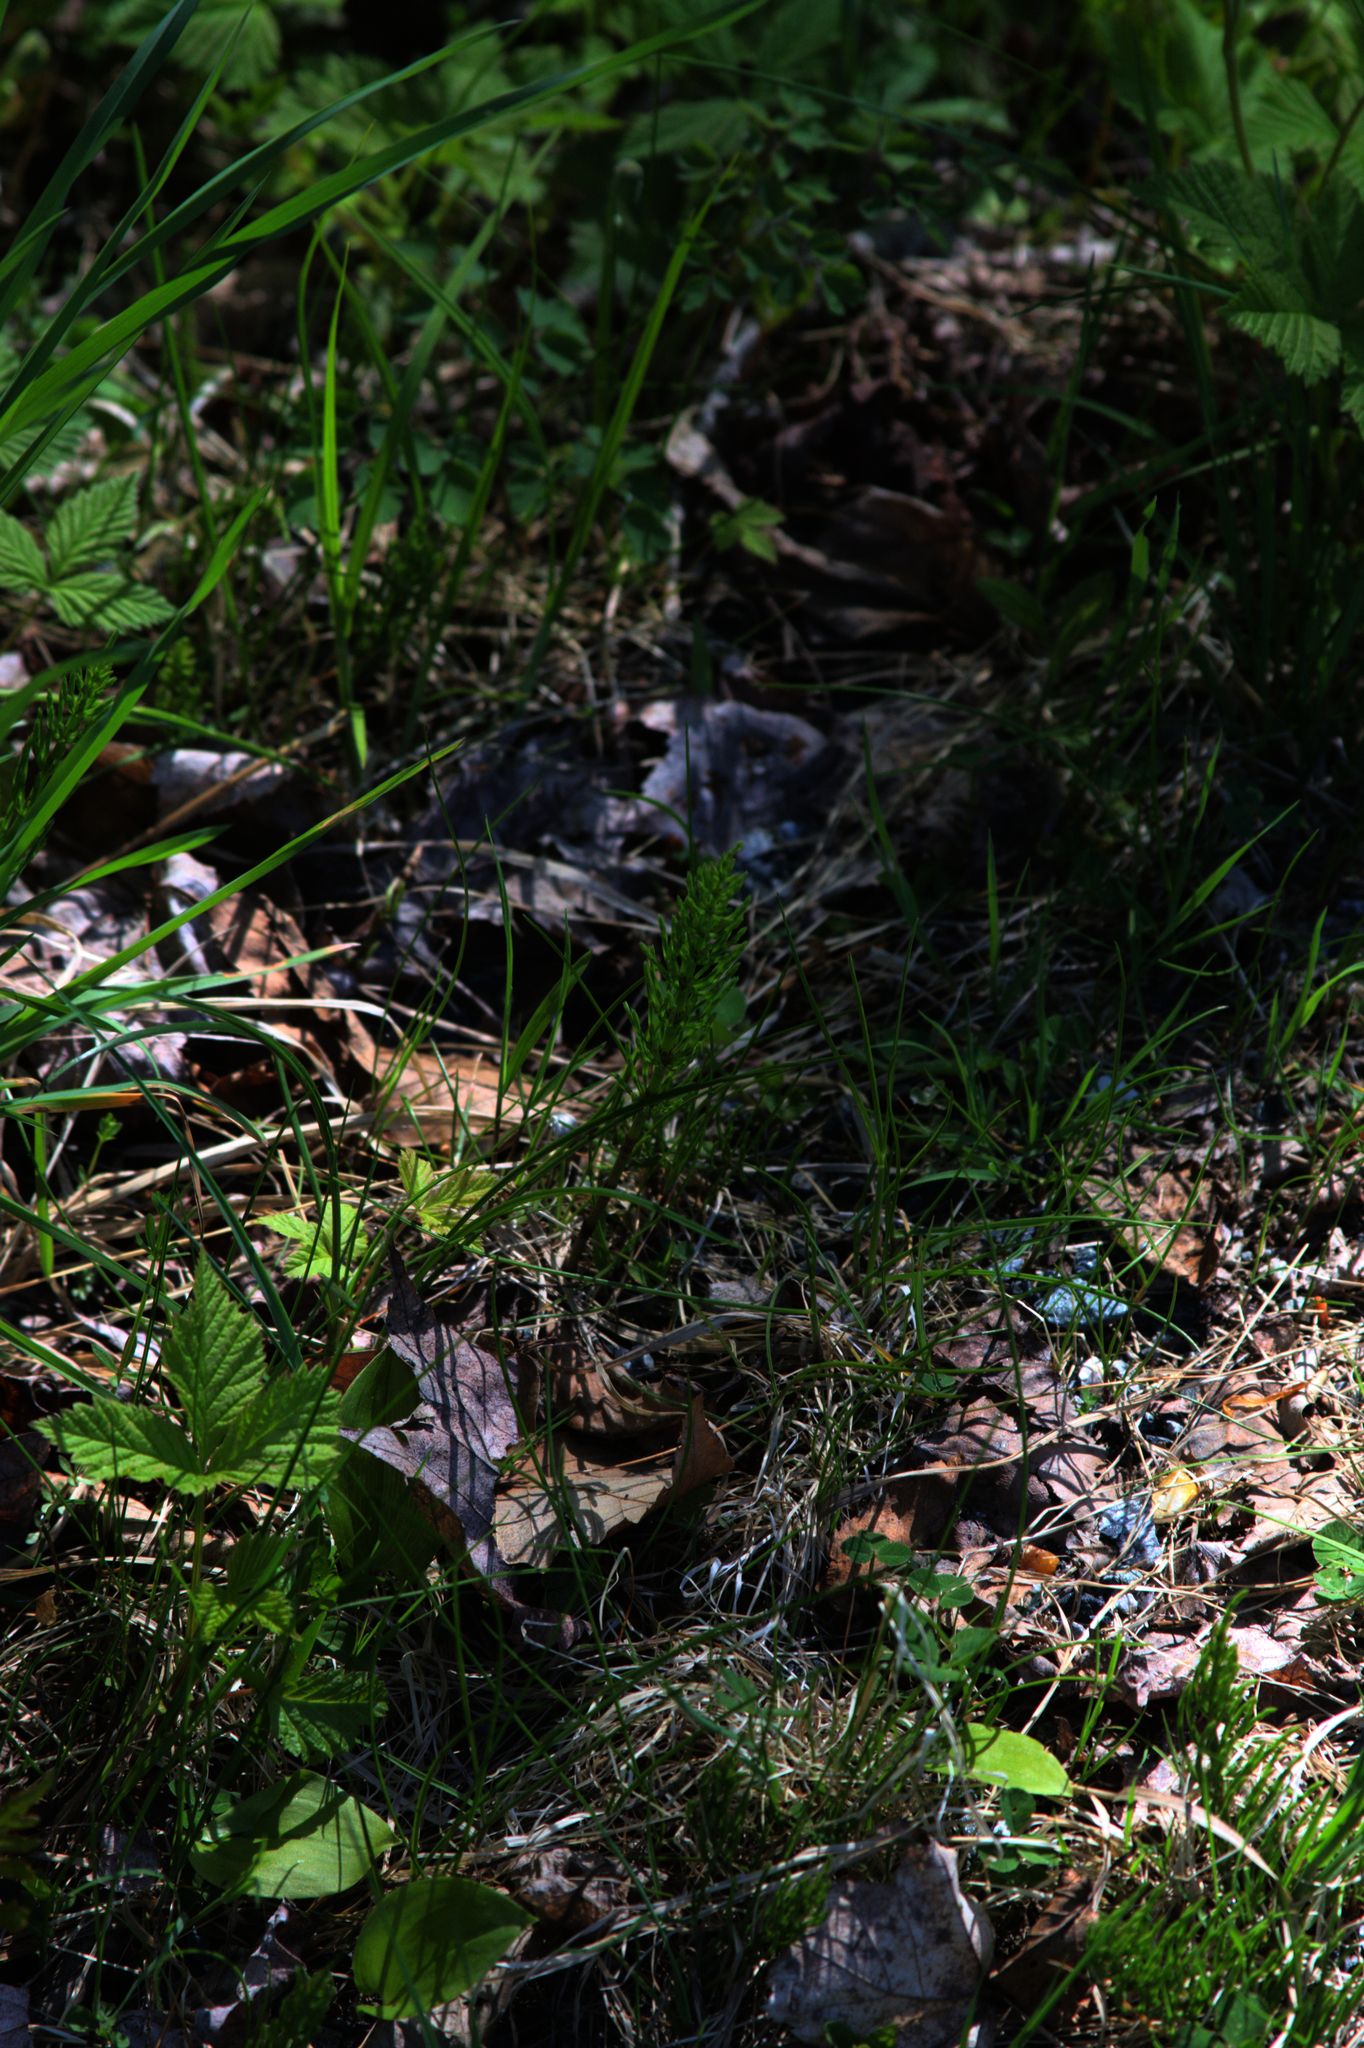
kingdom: Plantae
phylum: Tracheophyta
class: Polypodiopsida
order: Equisetales
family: Equisetaceae
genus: Equisetum
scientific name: Equisetum arvense
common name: Field horsetail
